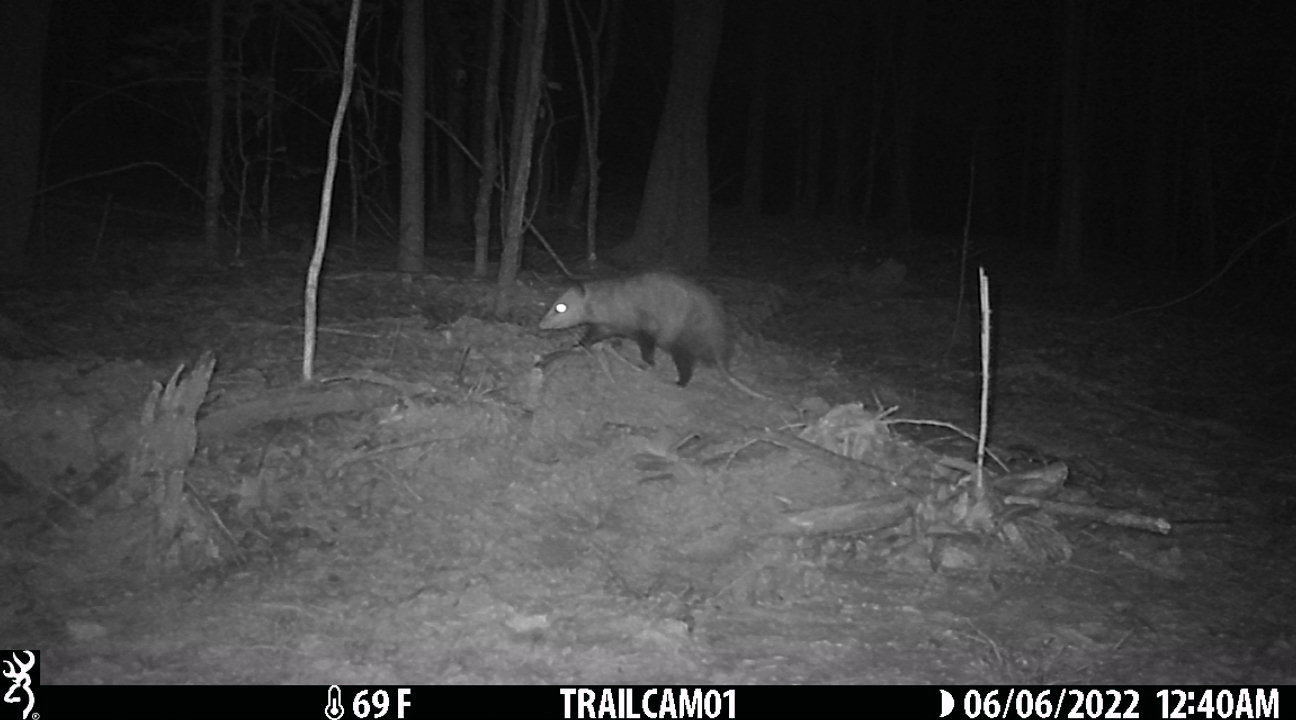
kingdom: Animalia
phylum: Chordata
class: Mammalia
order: Didelphimorphia
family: Didelphidae
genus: Didelphis
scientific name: Didelphis virginiana
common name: Virginia opossum
